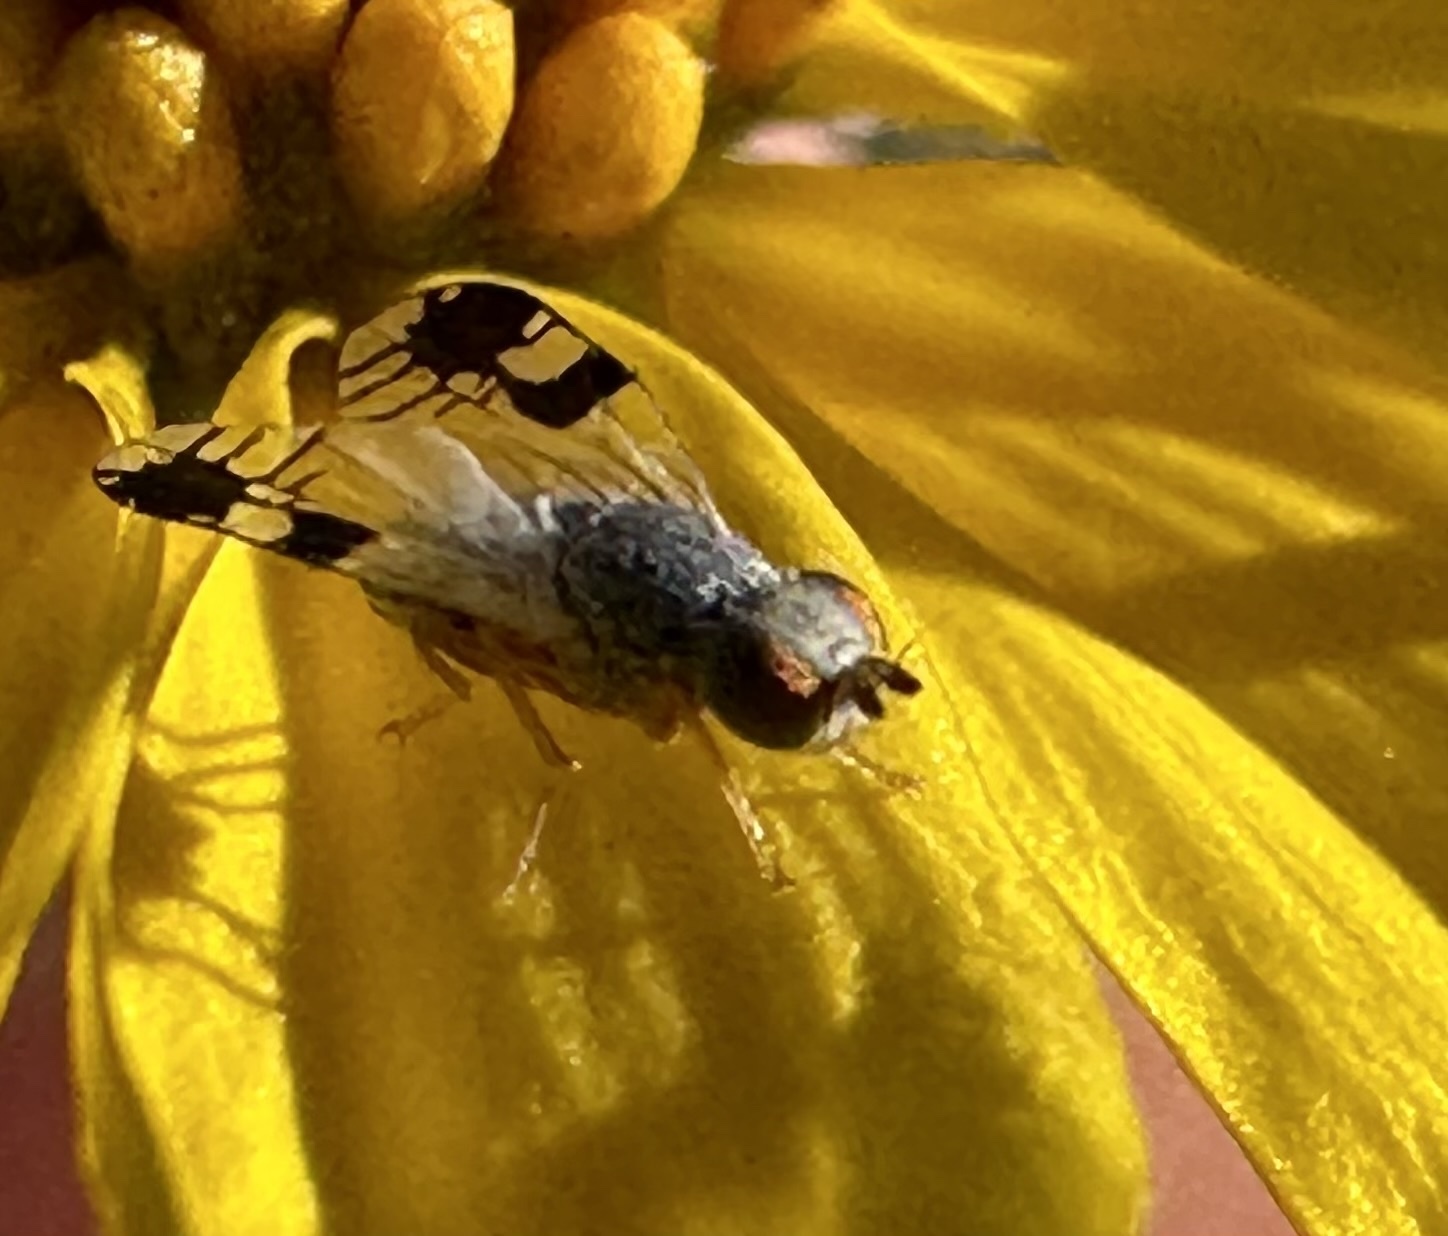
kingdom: Animalia
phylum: Arthropoda
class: Insecta
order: Diptera
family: Tephritidae
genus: Trupanea
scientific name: Trupanea nigricornis
